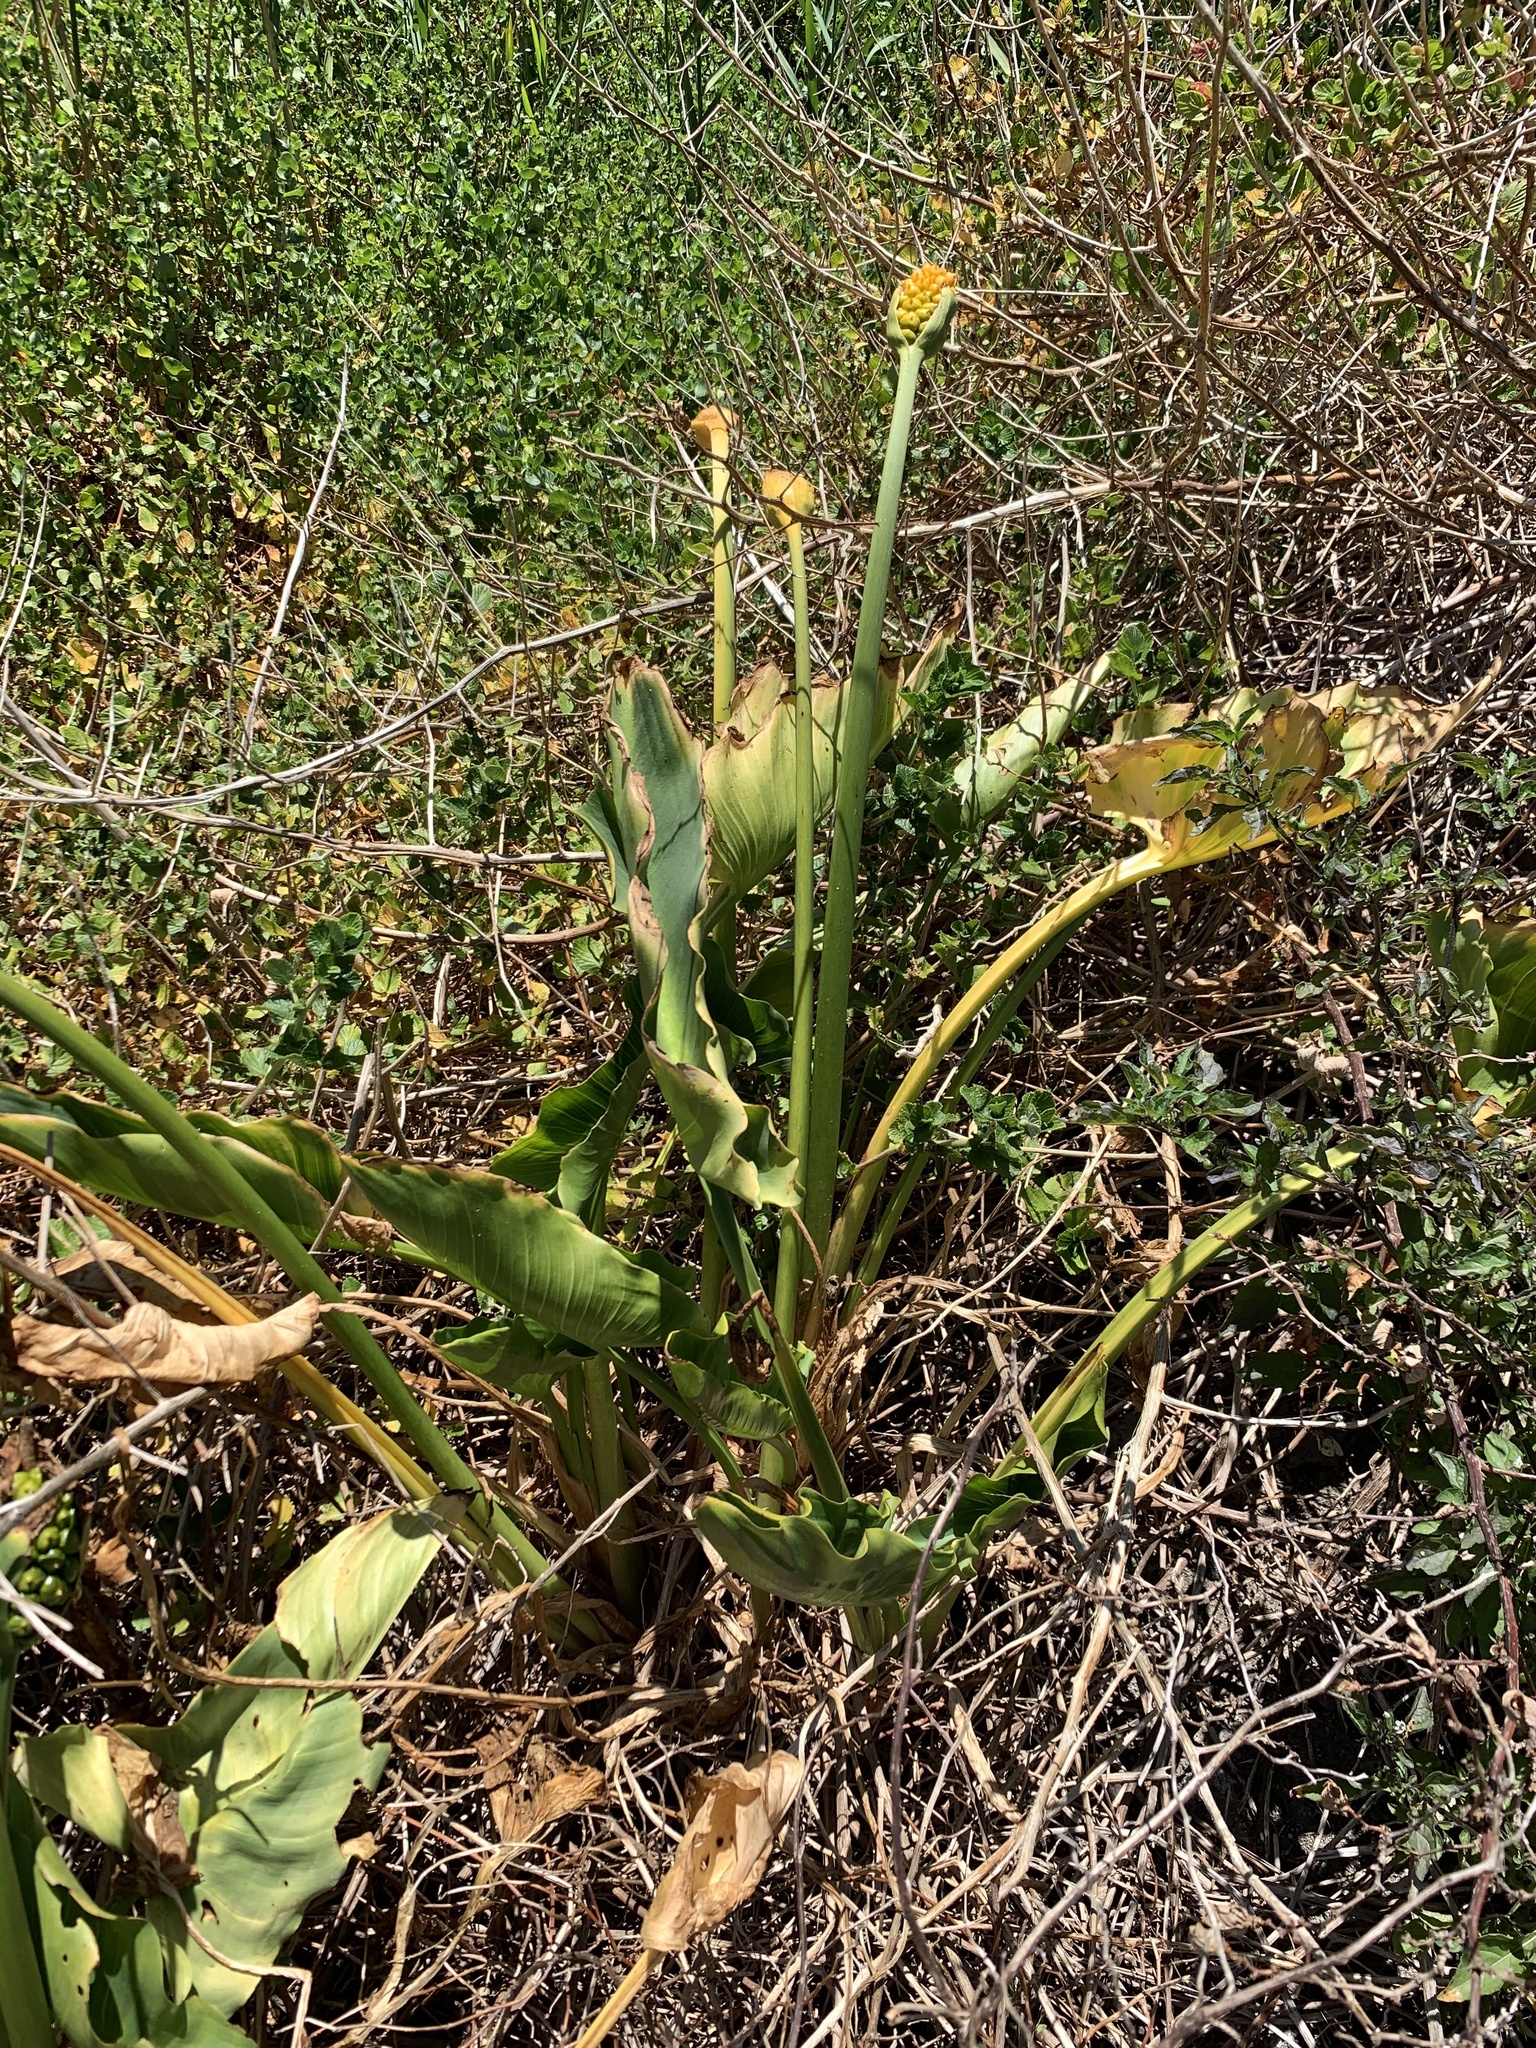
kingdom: Plantae
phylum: Tracheophyta
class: Liliopsida
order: Alismatales
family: Araceae
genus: Zantedeschia
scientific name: Zantedeschia aethiopica
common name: Altar-lily
